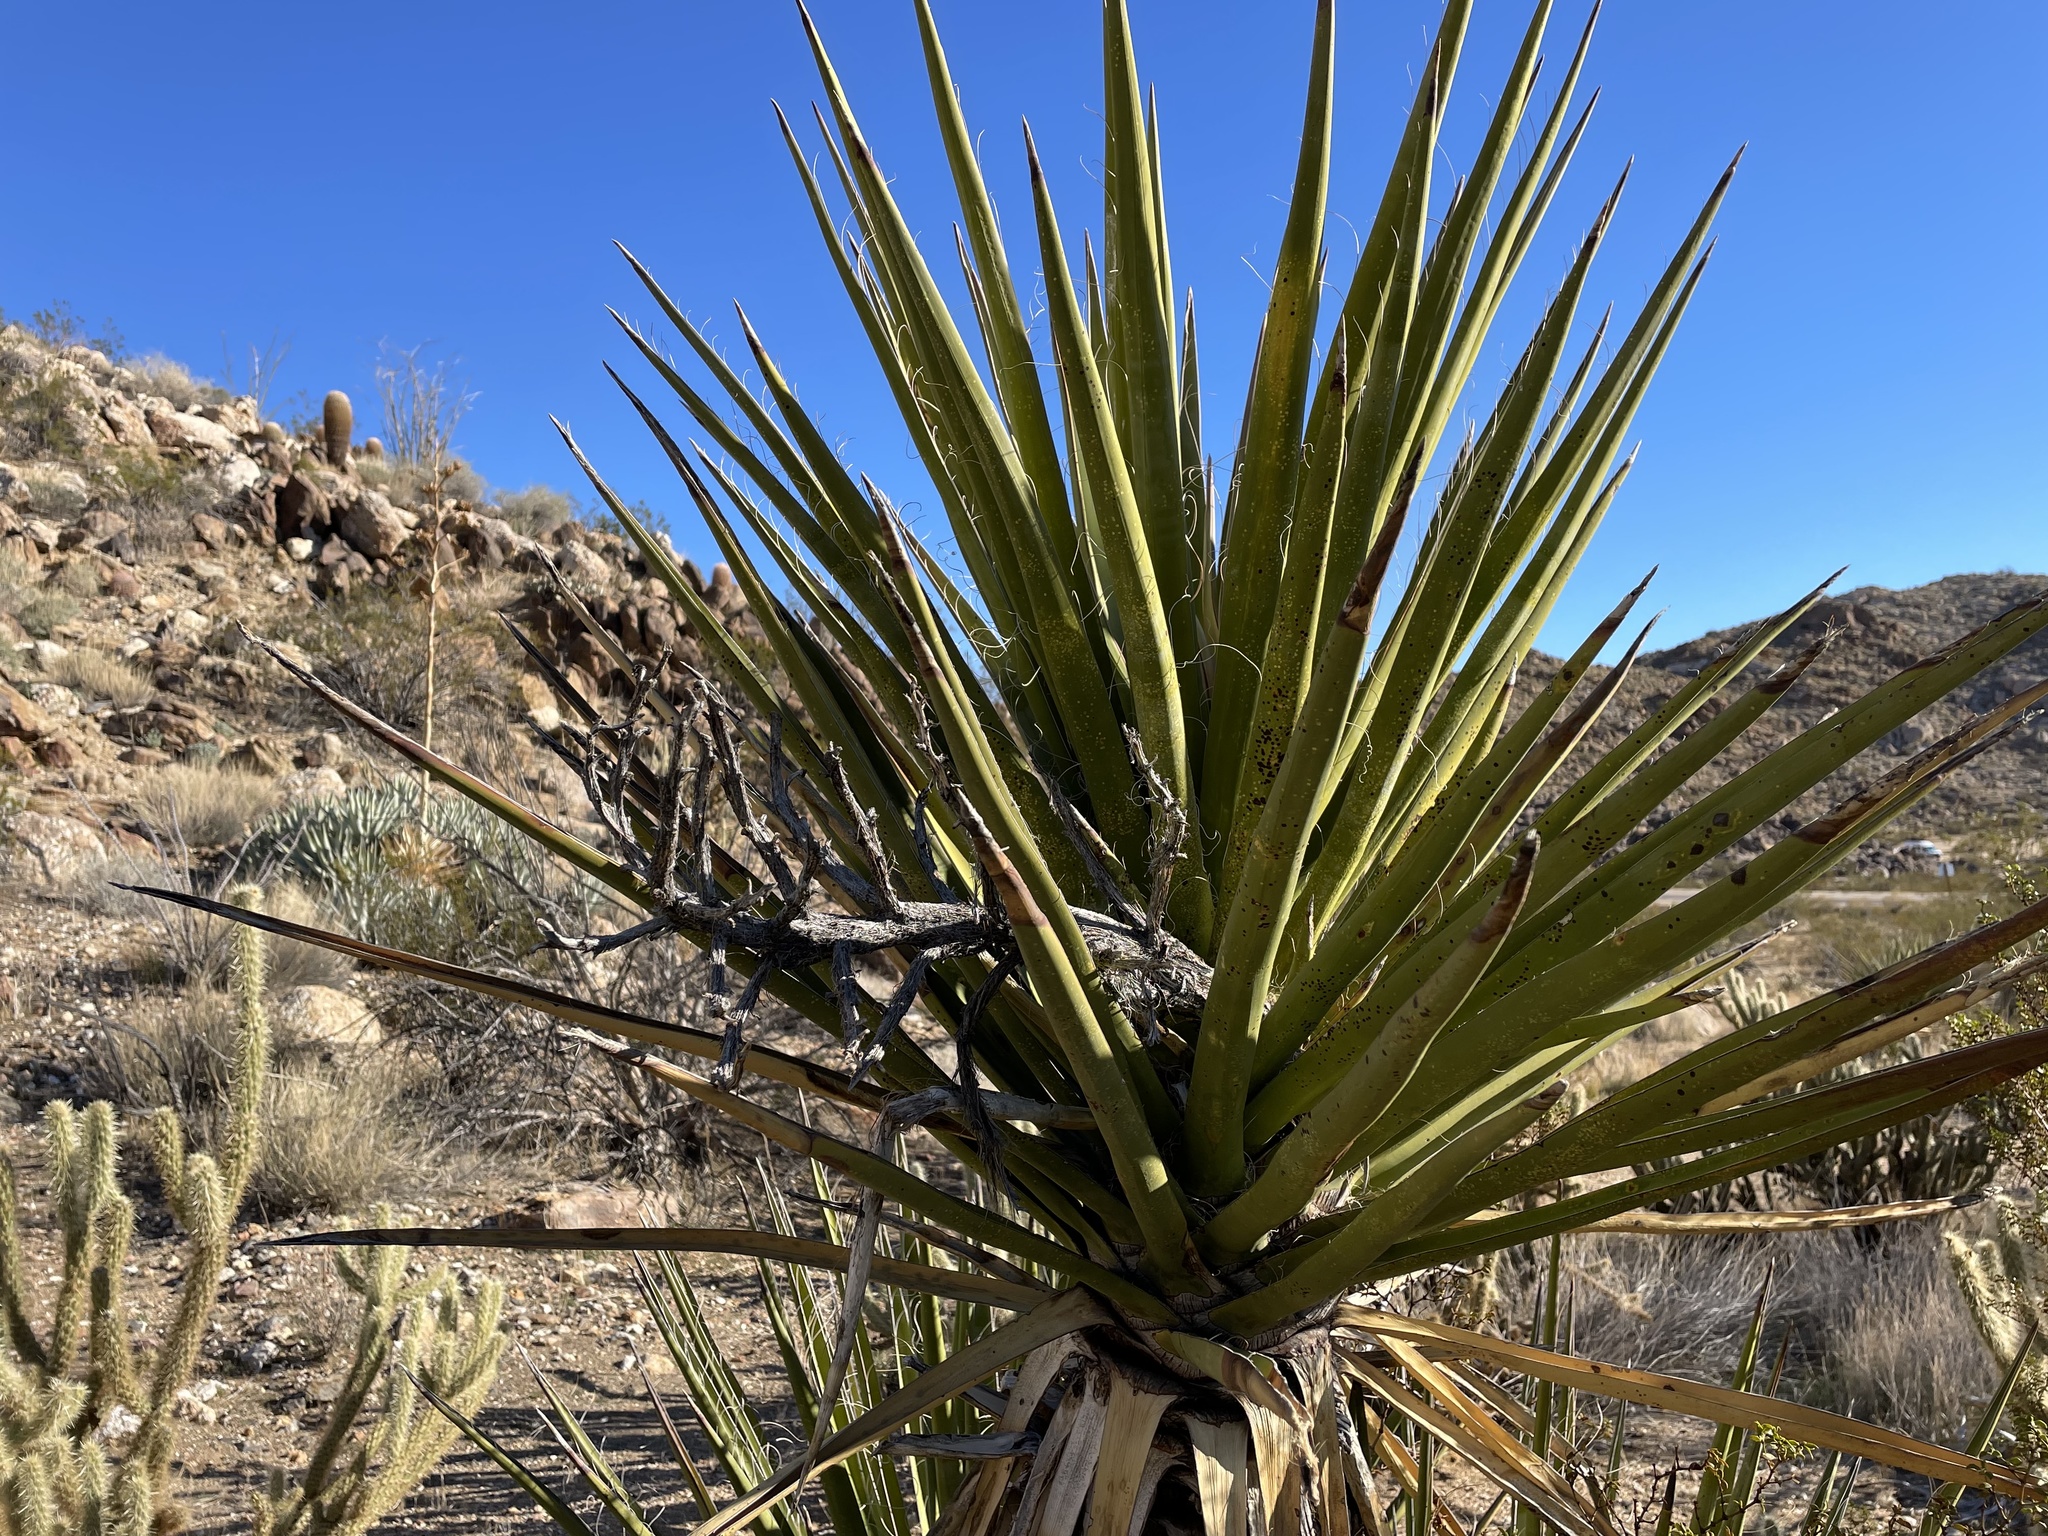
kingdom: Plantae
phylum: Tracheophyta
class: Liliopsida
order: Asparagales
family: Asparagaceae
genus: Yucca
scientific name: Yucca schidigera
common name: Mojave yucca
